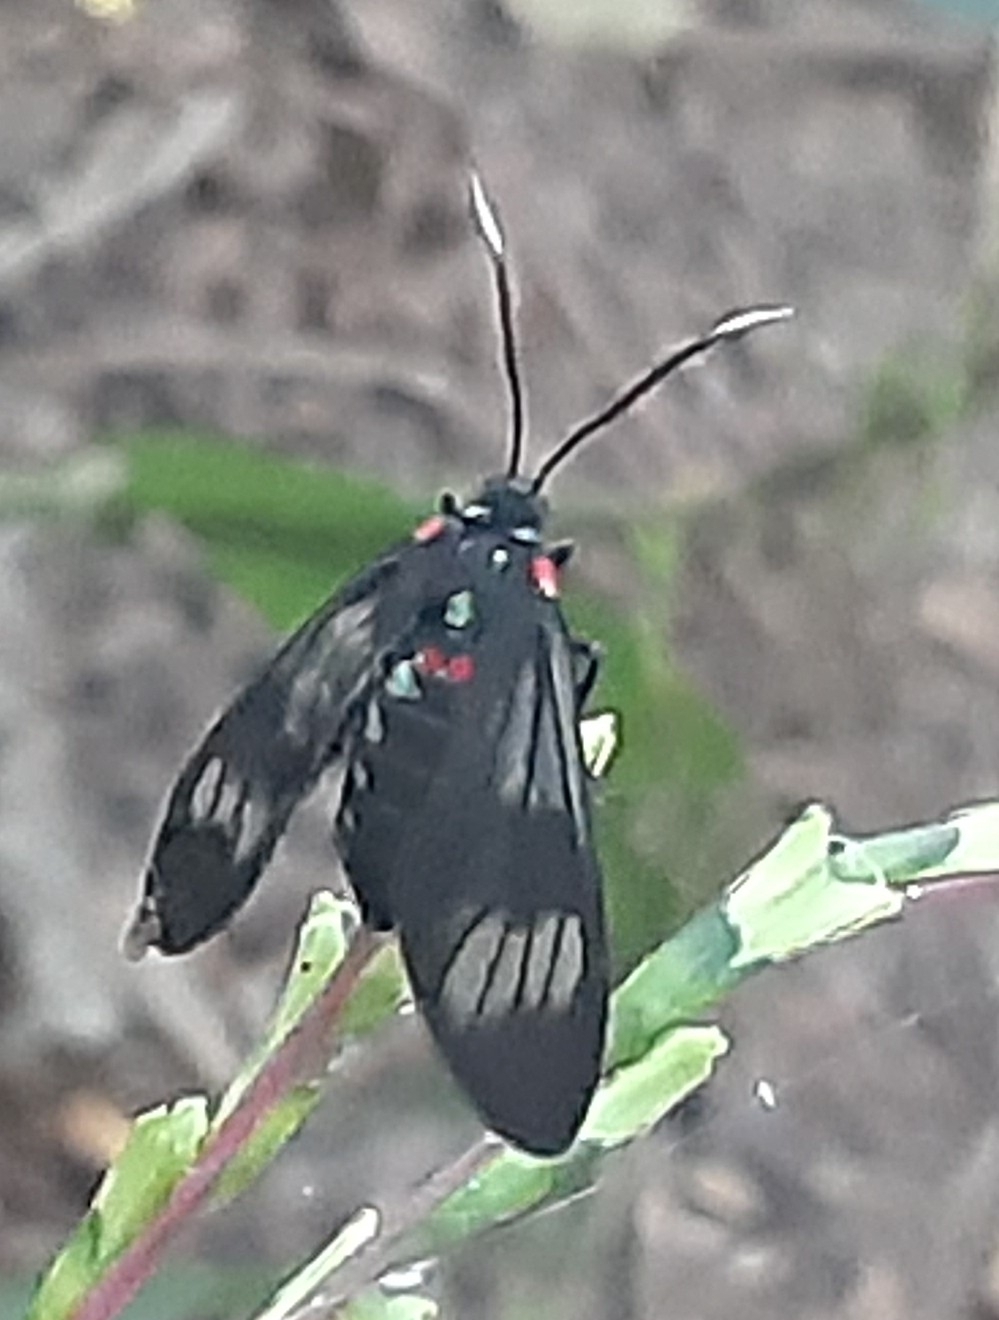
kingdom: Animalia
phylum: Arthropoda
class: Insecta
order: Lepidoptera
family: Erebidae
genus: Phoeniostacta
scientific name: Phoeniostacta haematobasis
